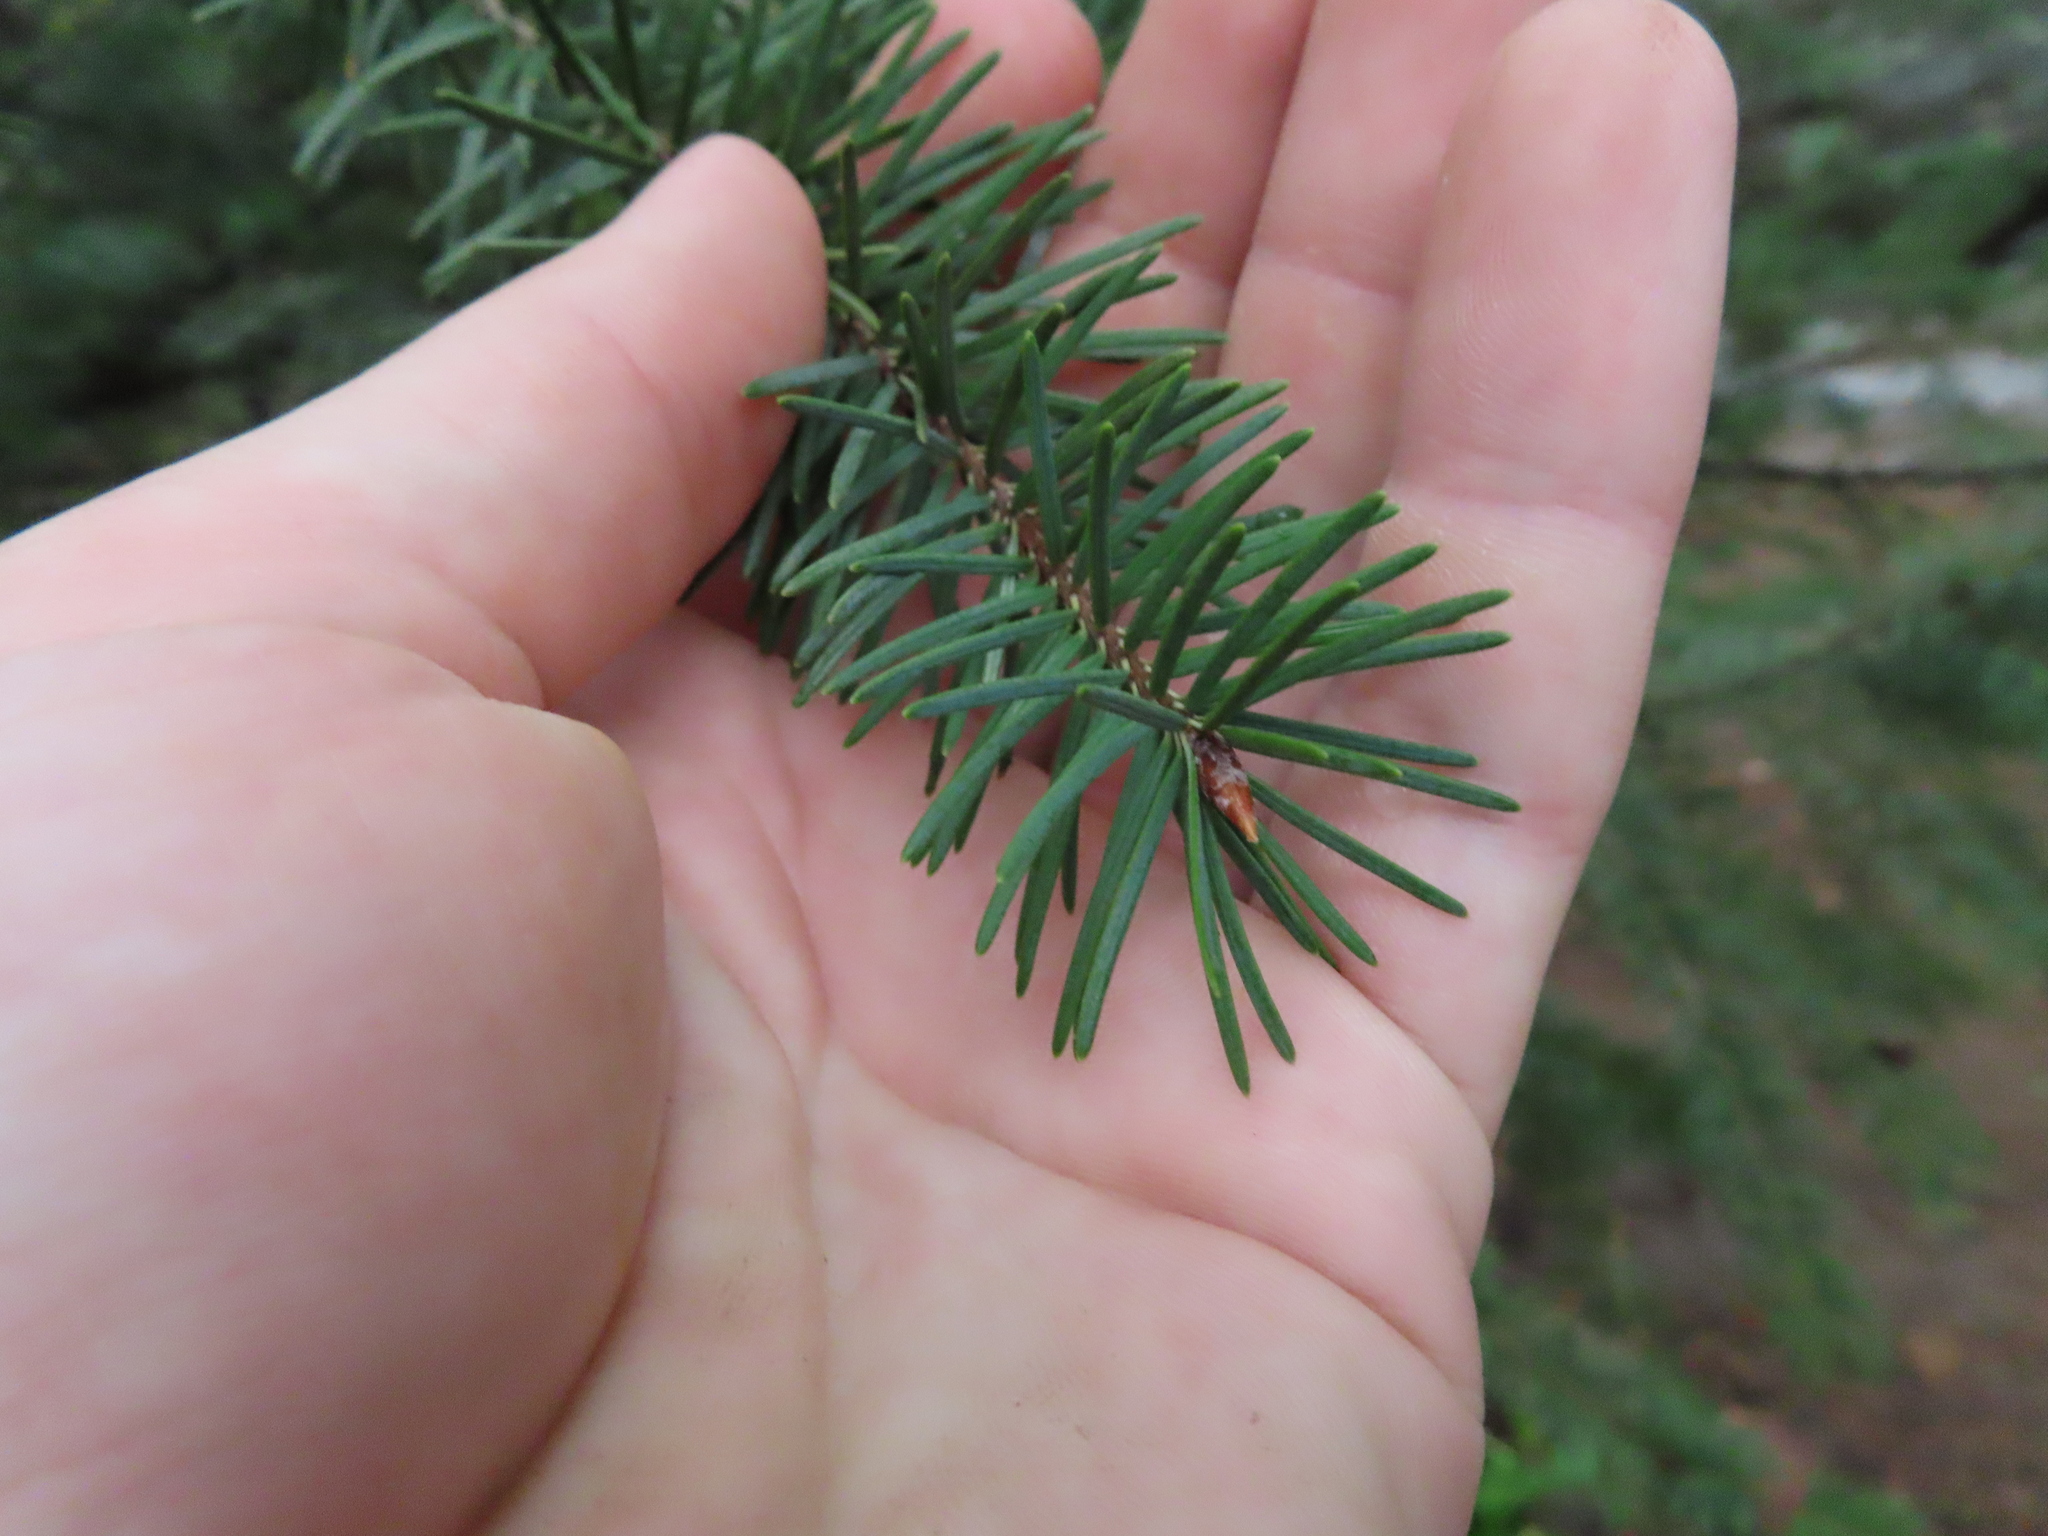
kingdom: Plantae
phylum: Tracheophyta
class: Pinopsida
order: Pinales
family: Pinaceae
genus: Pseudotsuga
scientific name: Pseudotsuga menziesii
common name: Douglas fir
